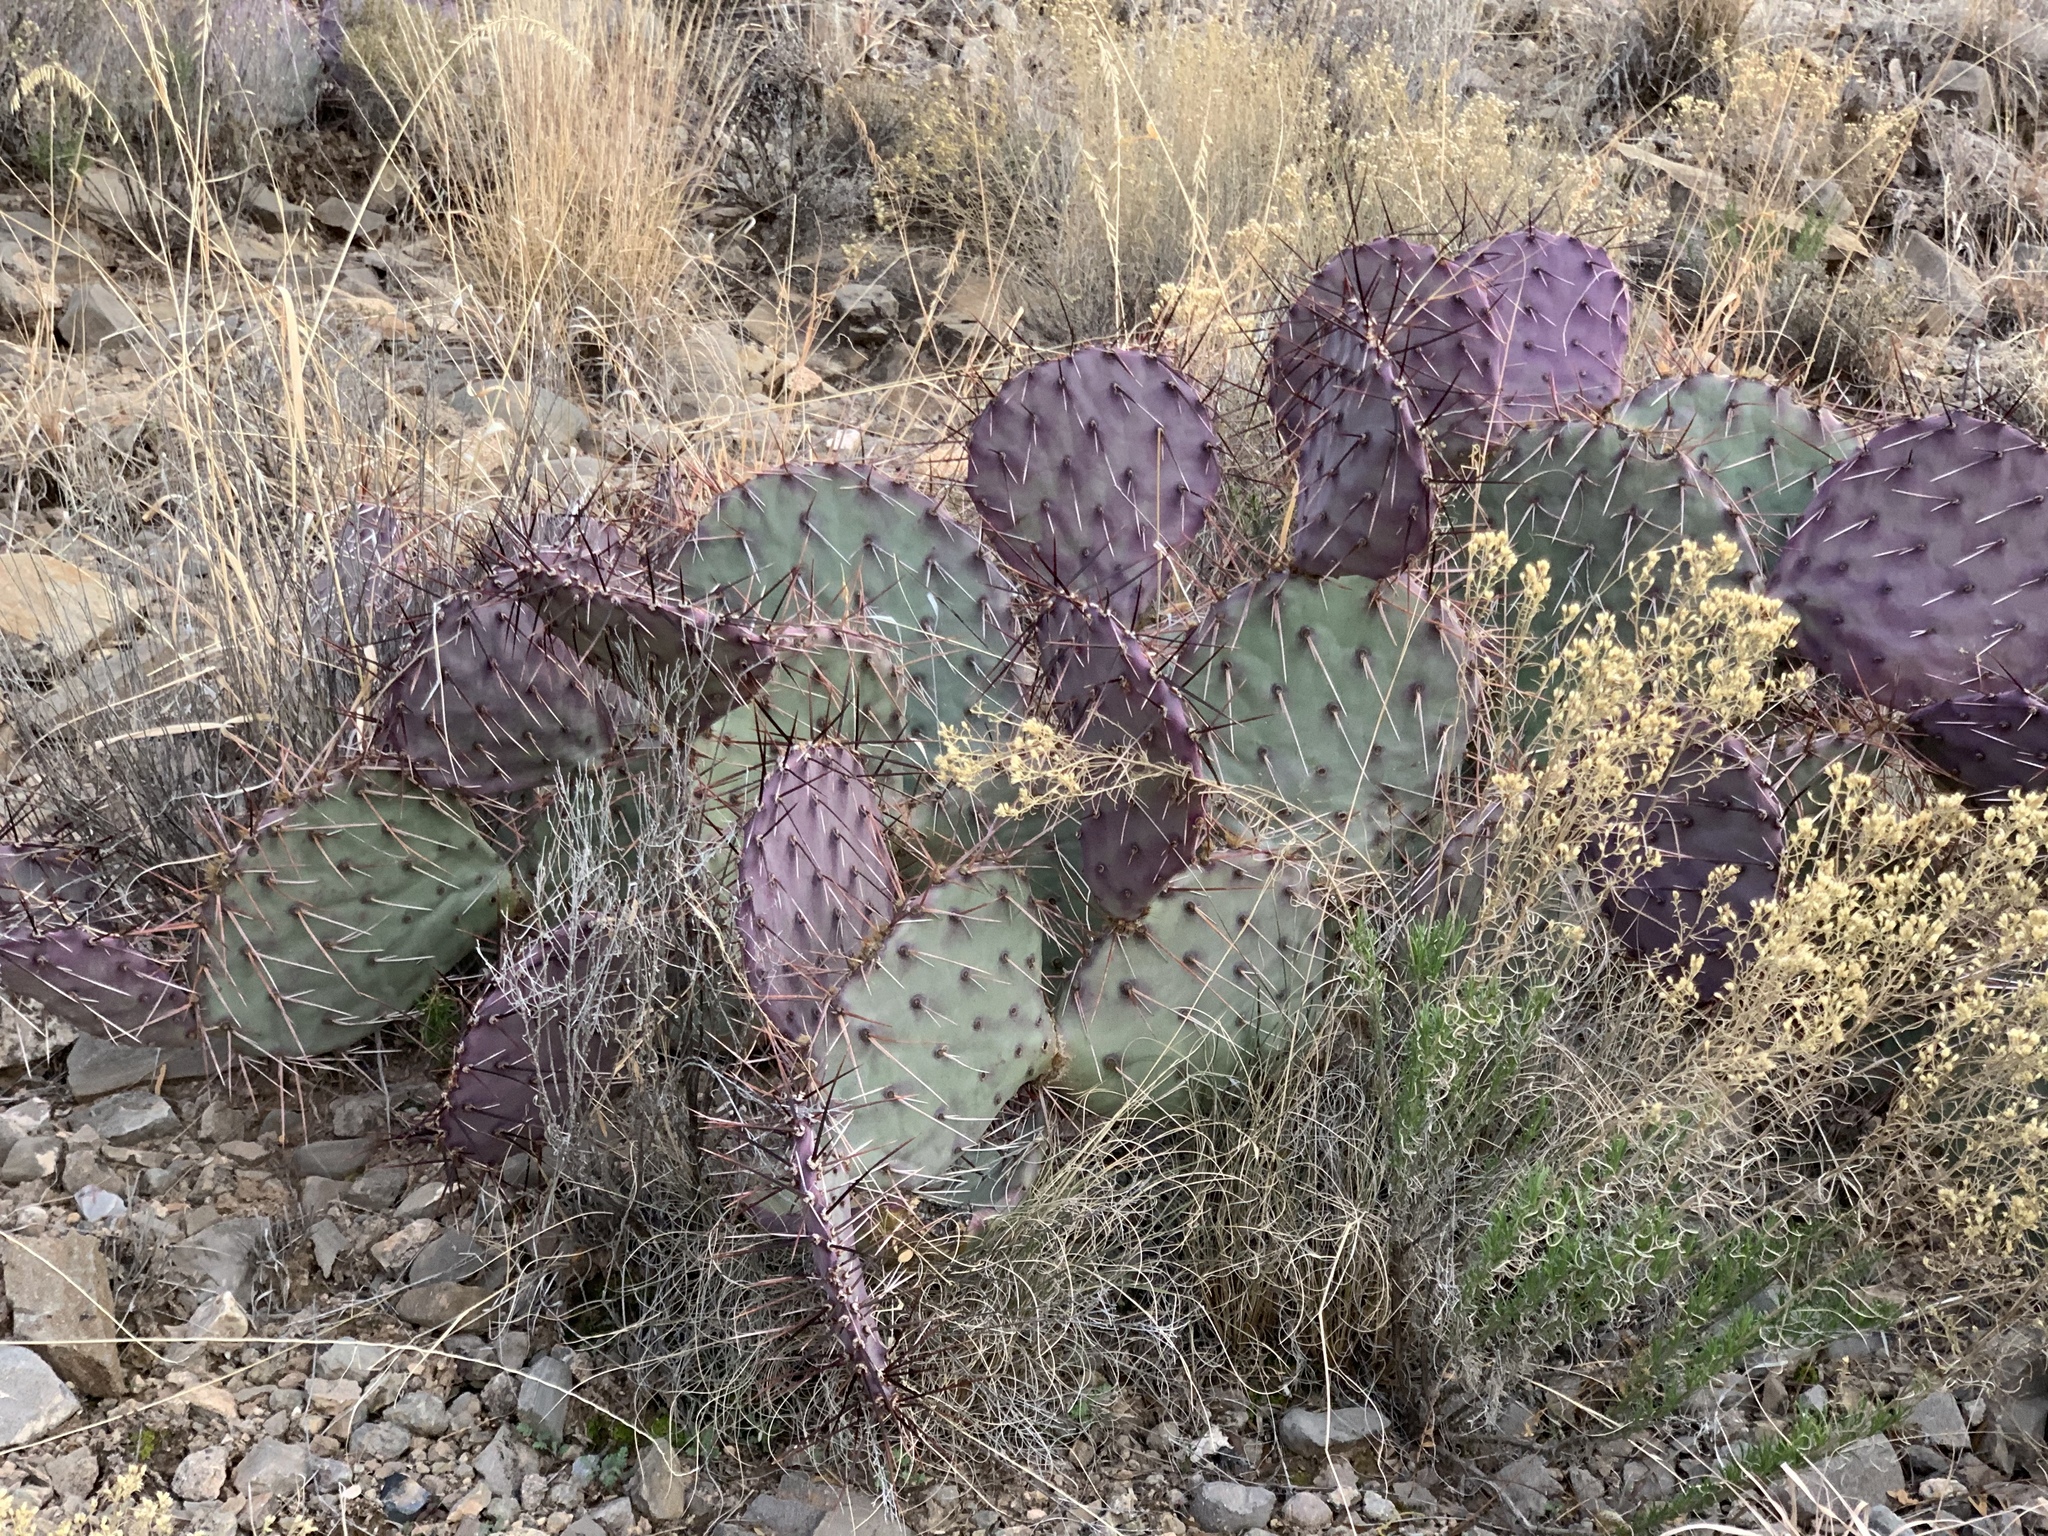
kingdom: Plantae
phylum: Tracheophyta
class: Magnoliopsida
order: Caryophyllales
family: Cactaceae
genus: Opuntia
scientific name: Opuntia macrocentra
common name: Purple prickly-pear
